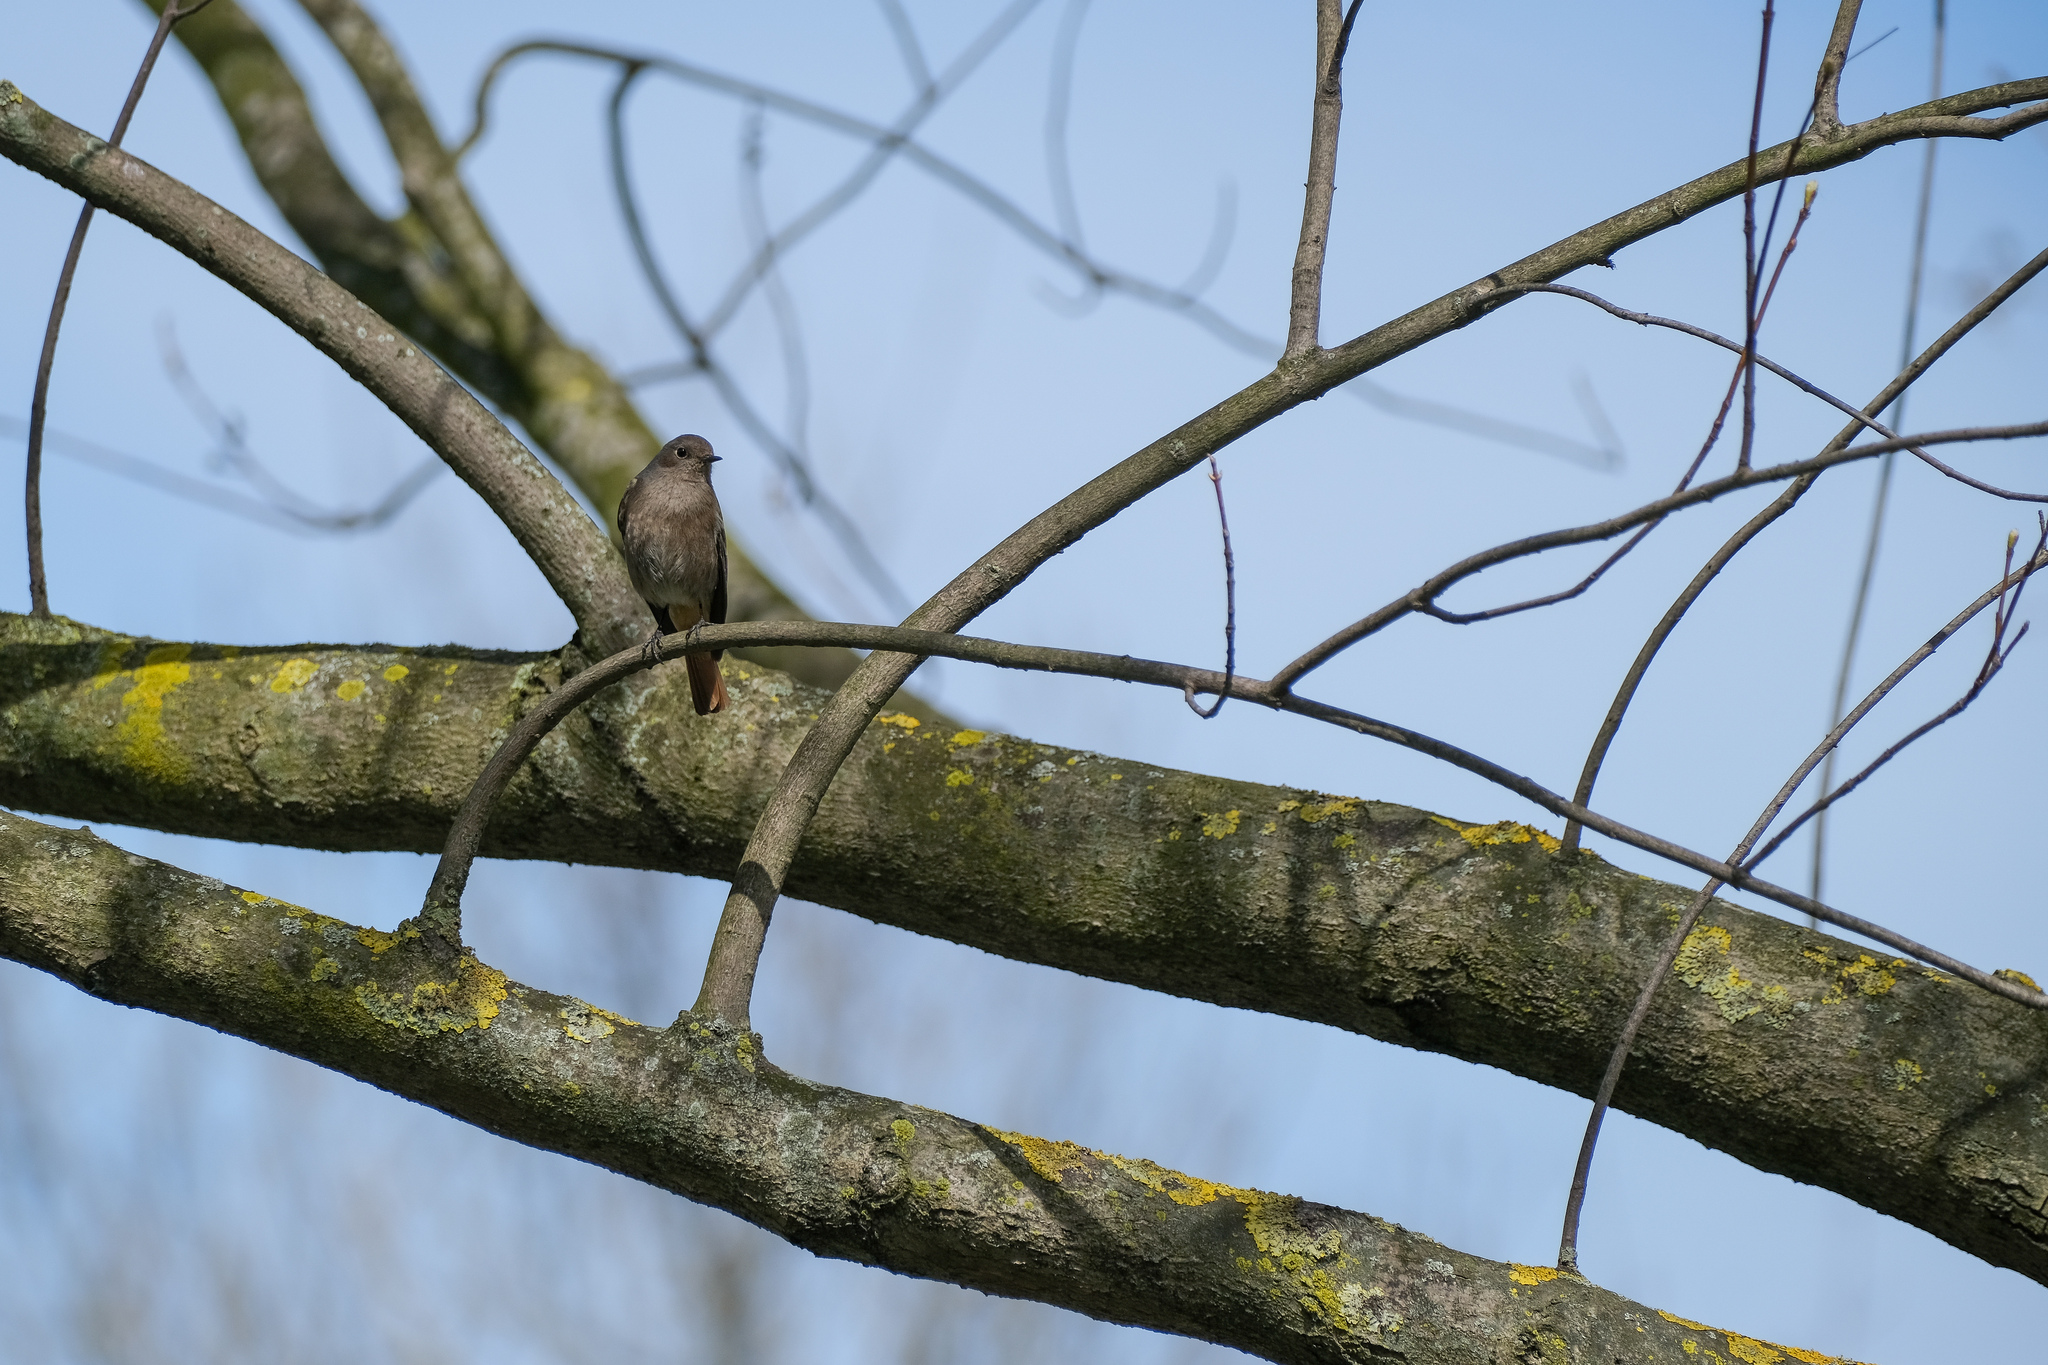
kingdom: Animalia
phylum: Chordata
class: Aves
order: Passeriformes
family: Muscicapidae
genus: Phoenicurus
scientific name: Phoenicurus ochruros
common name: Black redstart
